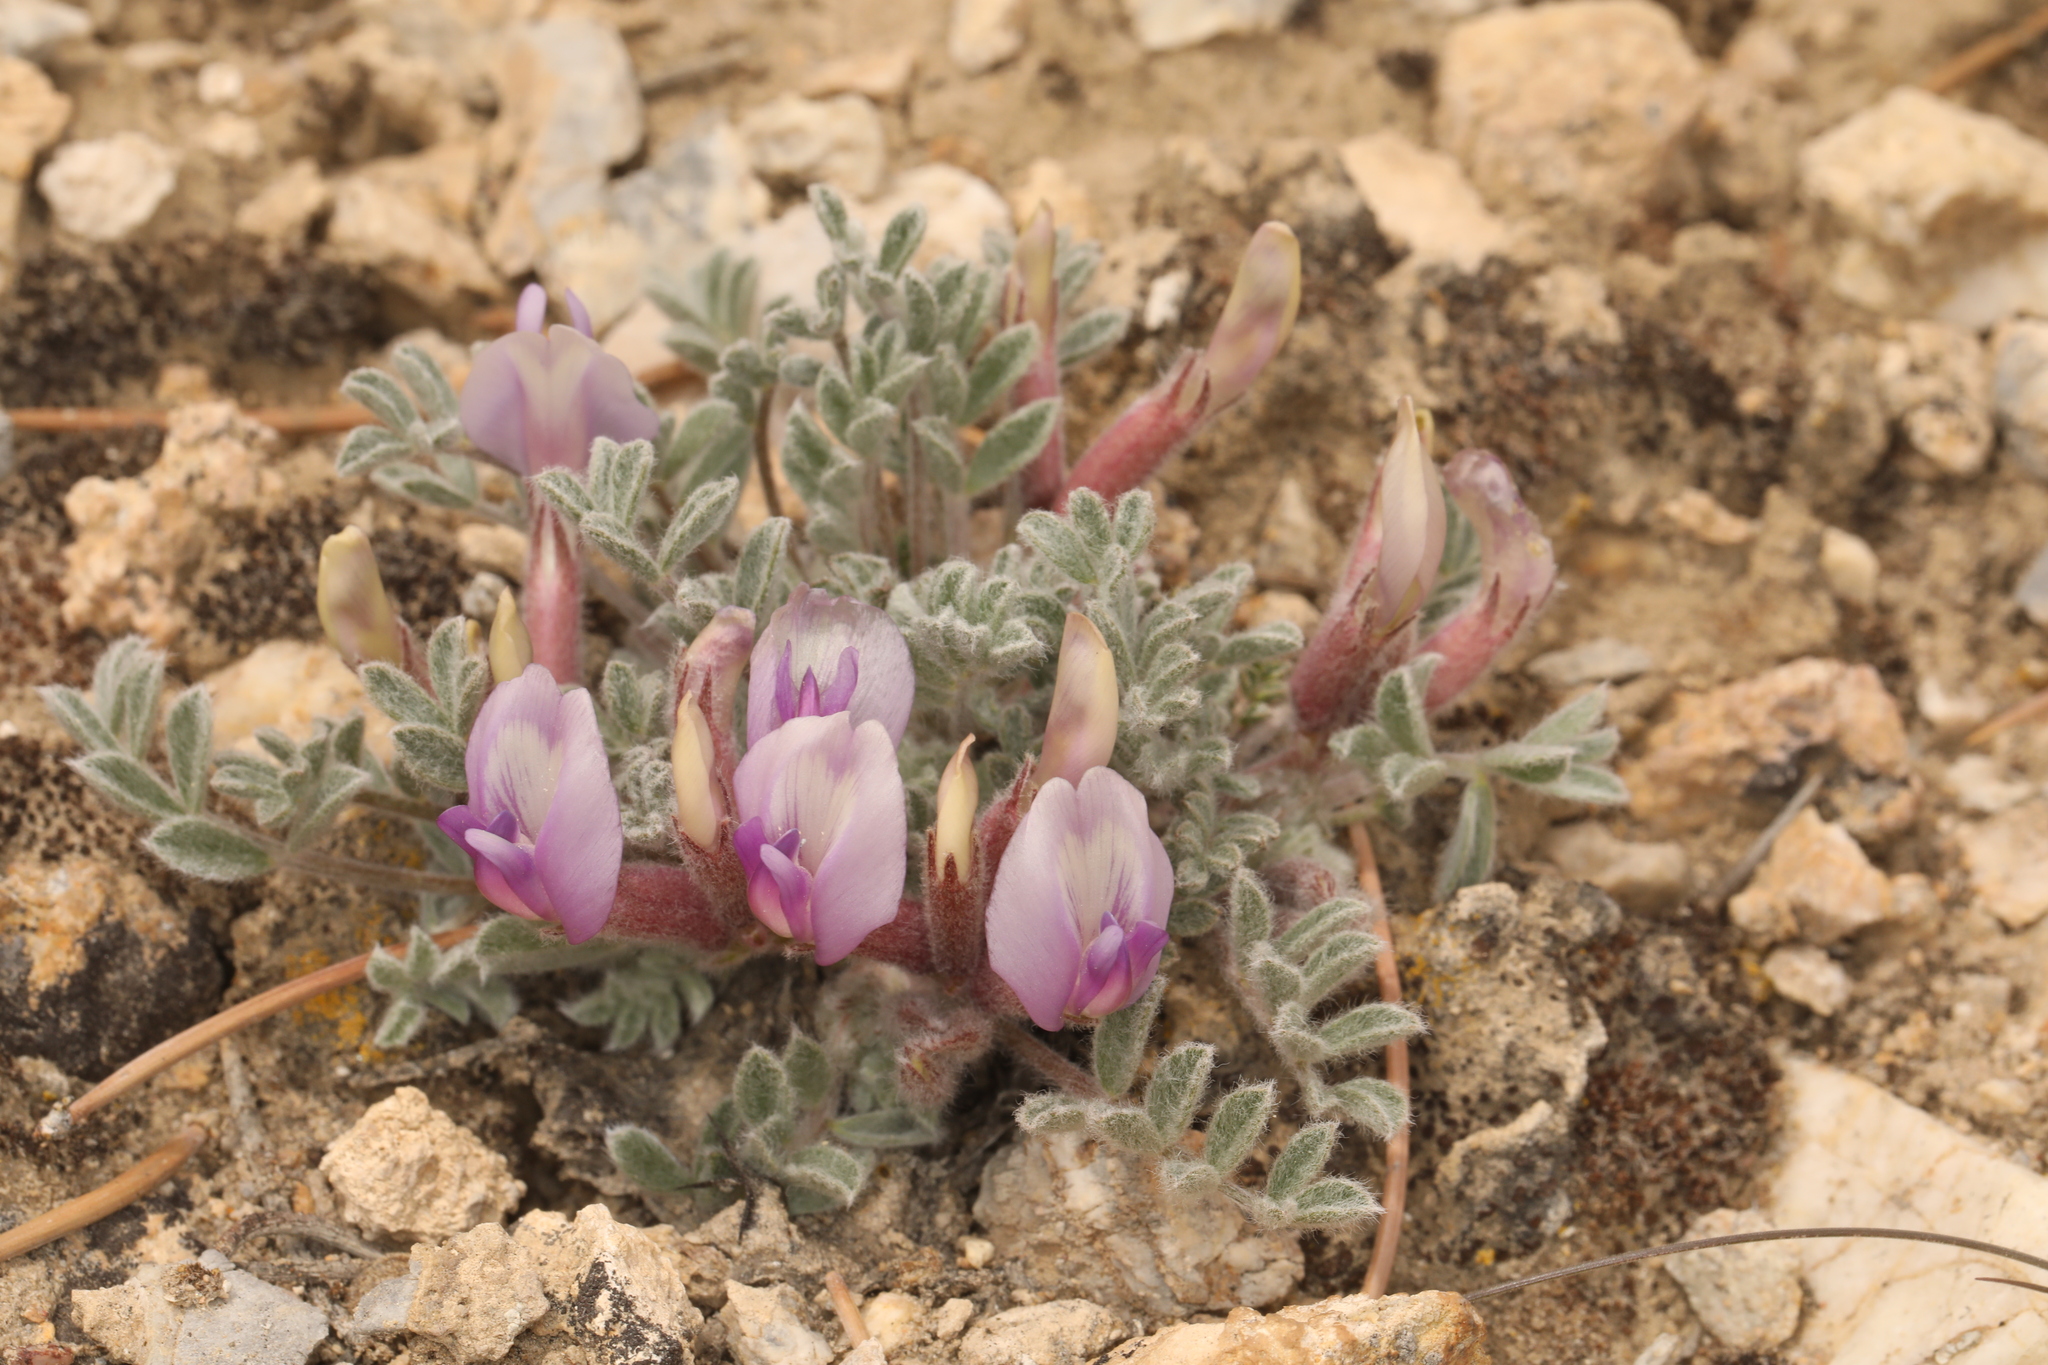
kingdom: Plantae
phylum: Tracheophyta
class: Magnoliopsida
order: Fabales
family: Fabaceae
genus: Astragalus
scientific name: Astragalus purshii
